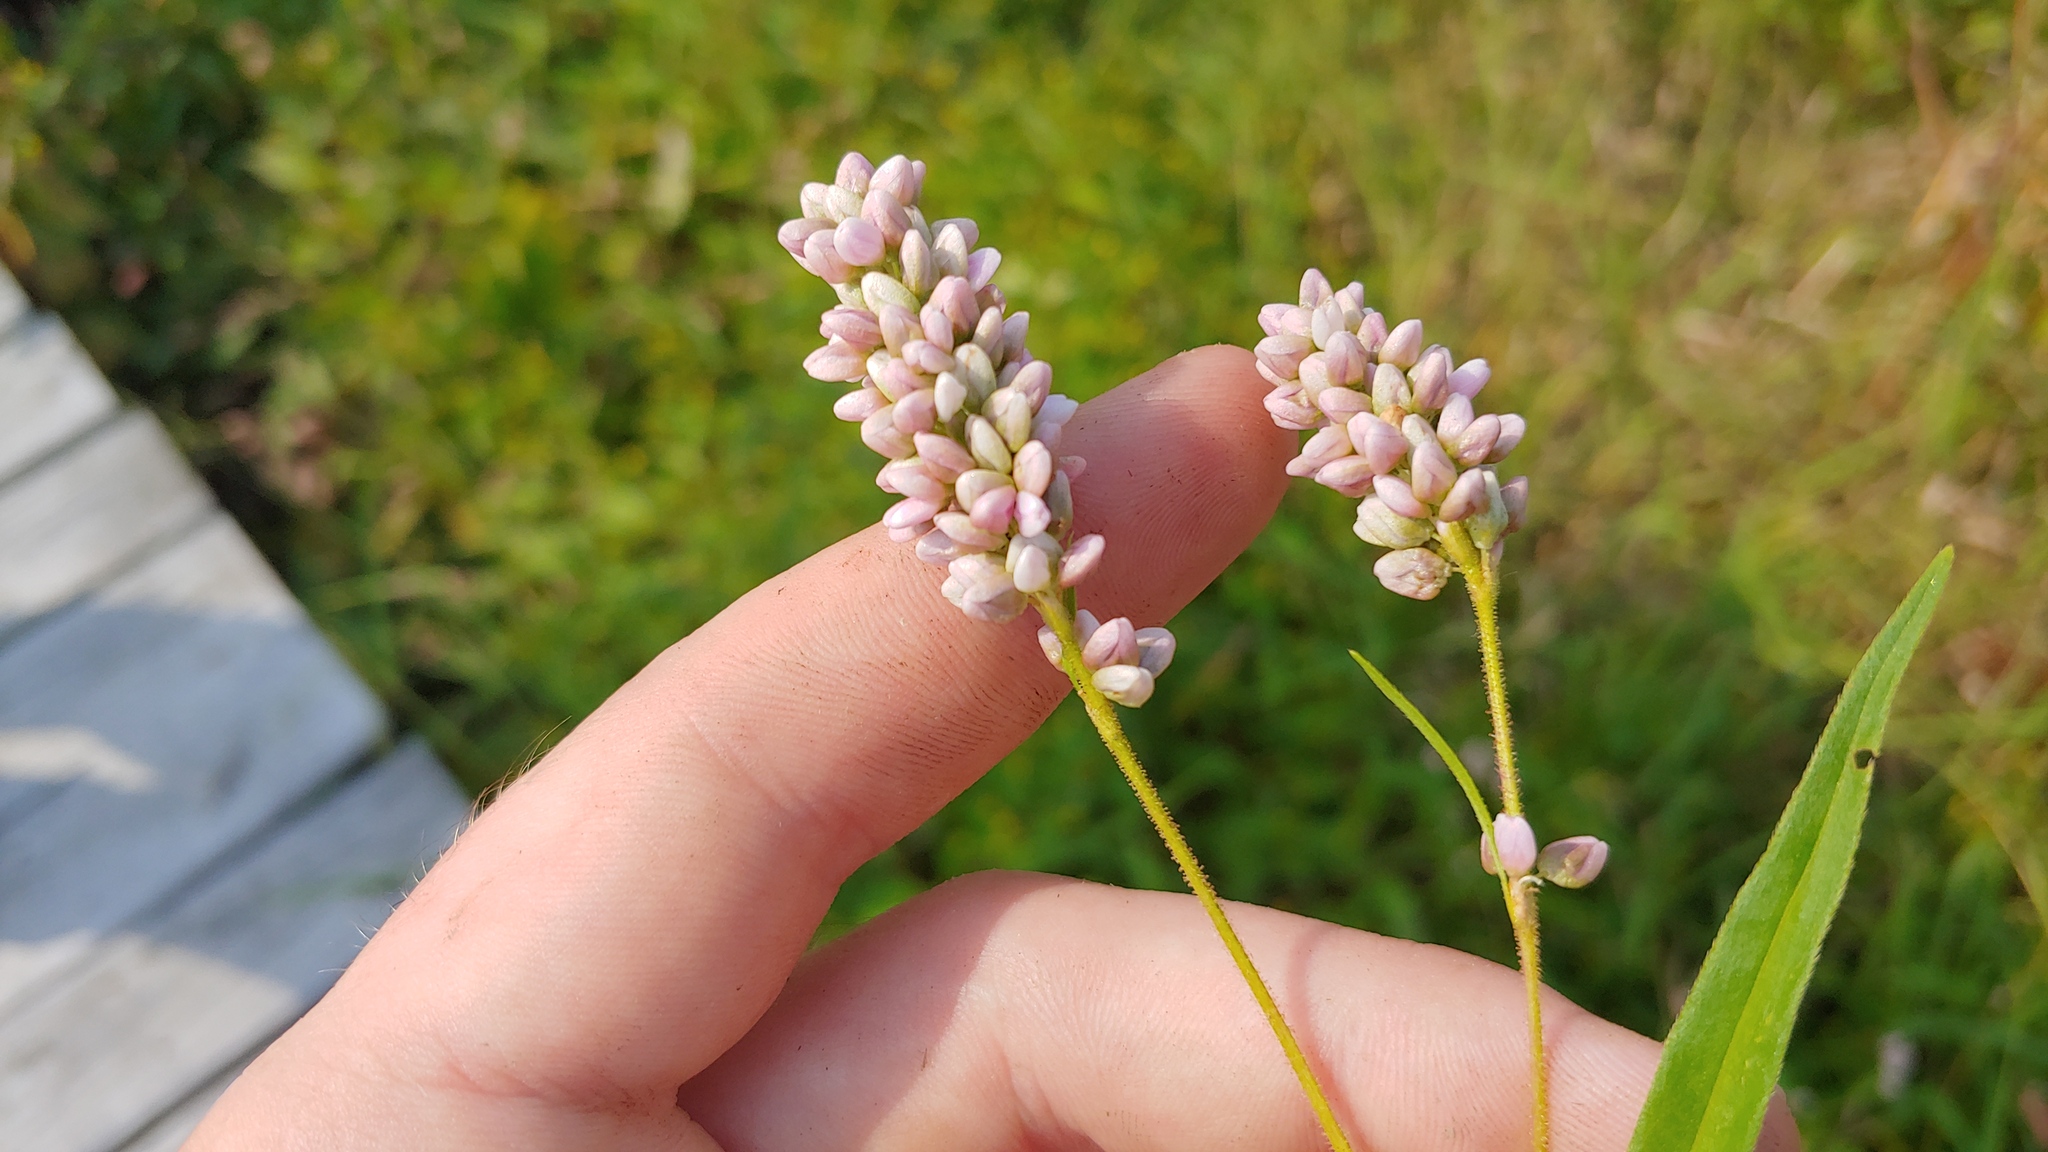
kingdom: Plantae
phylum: Tracheophyta
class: Magnoliopsida
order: Caryophyllales
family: Polygonaceae
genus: Persicaria
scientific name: Persicaria pensylvanica
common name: Pinkweed
